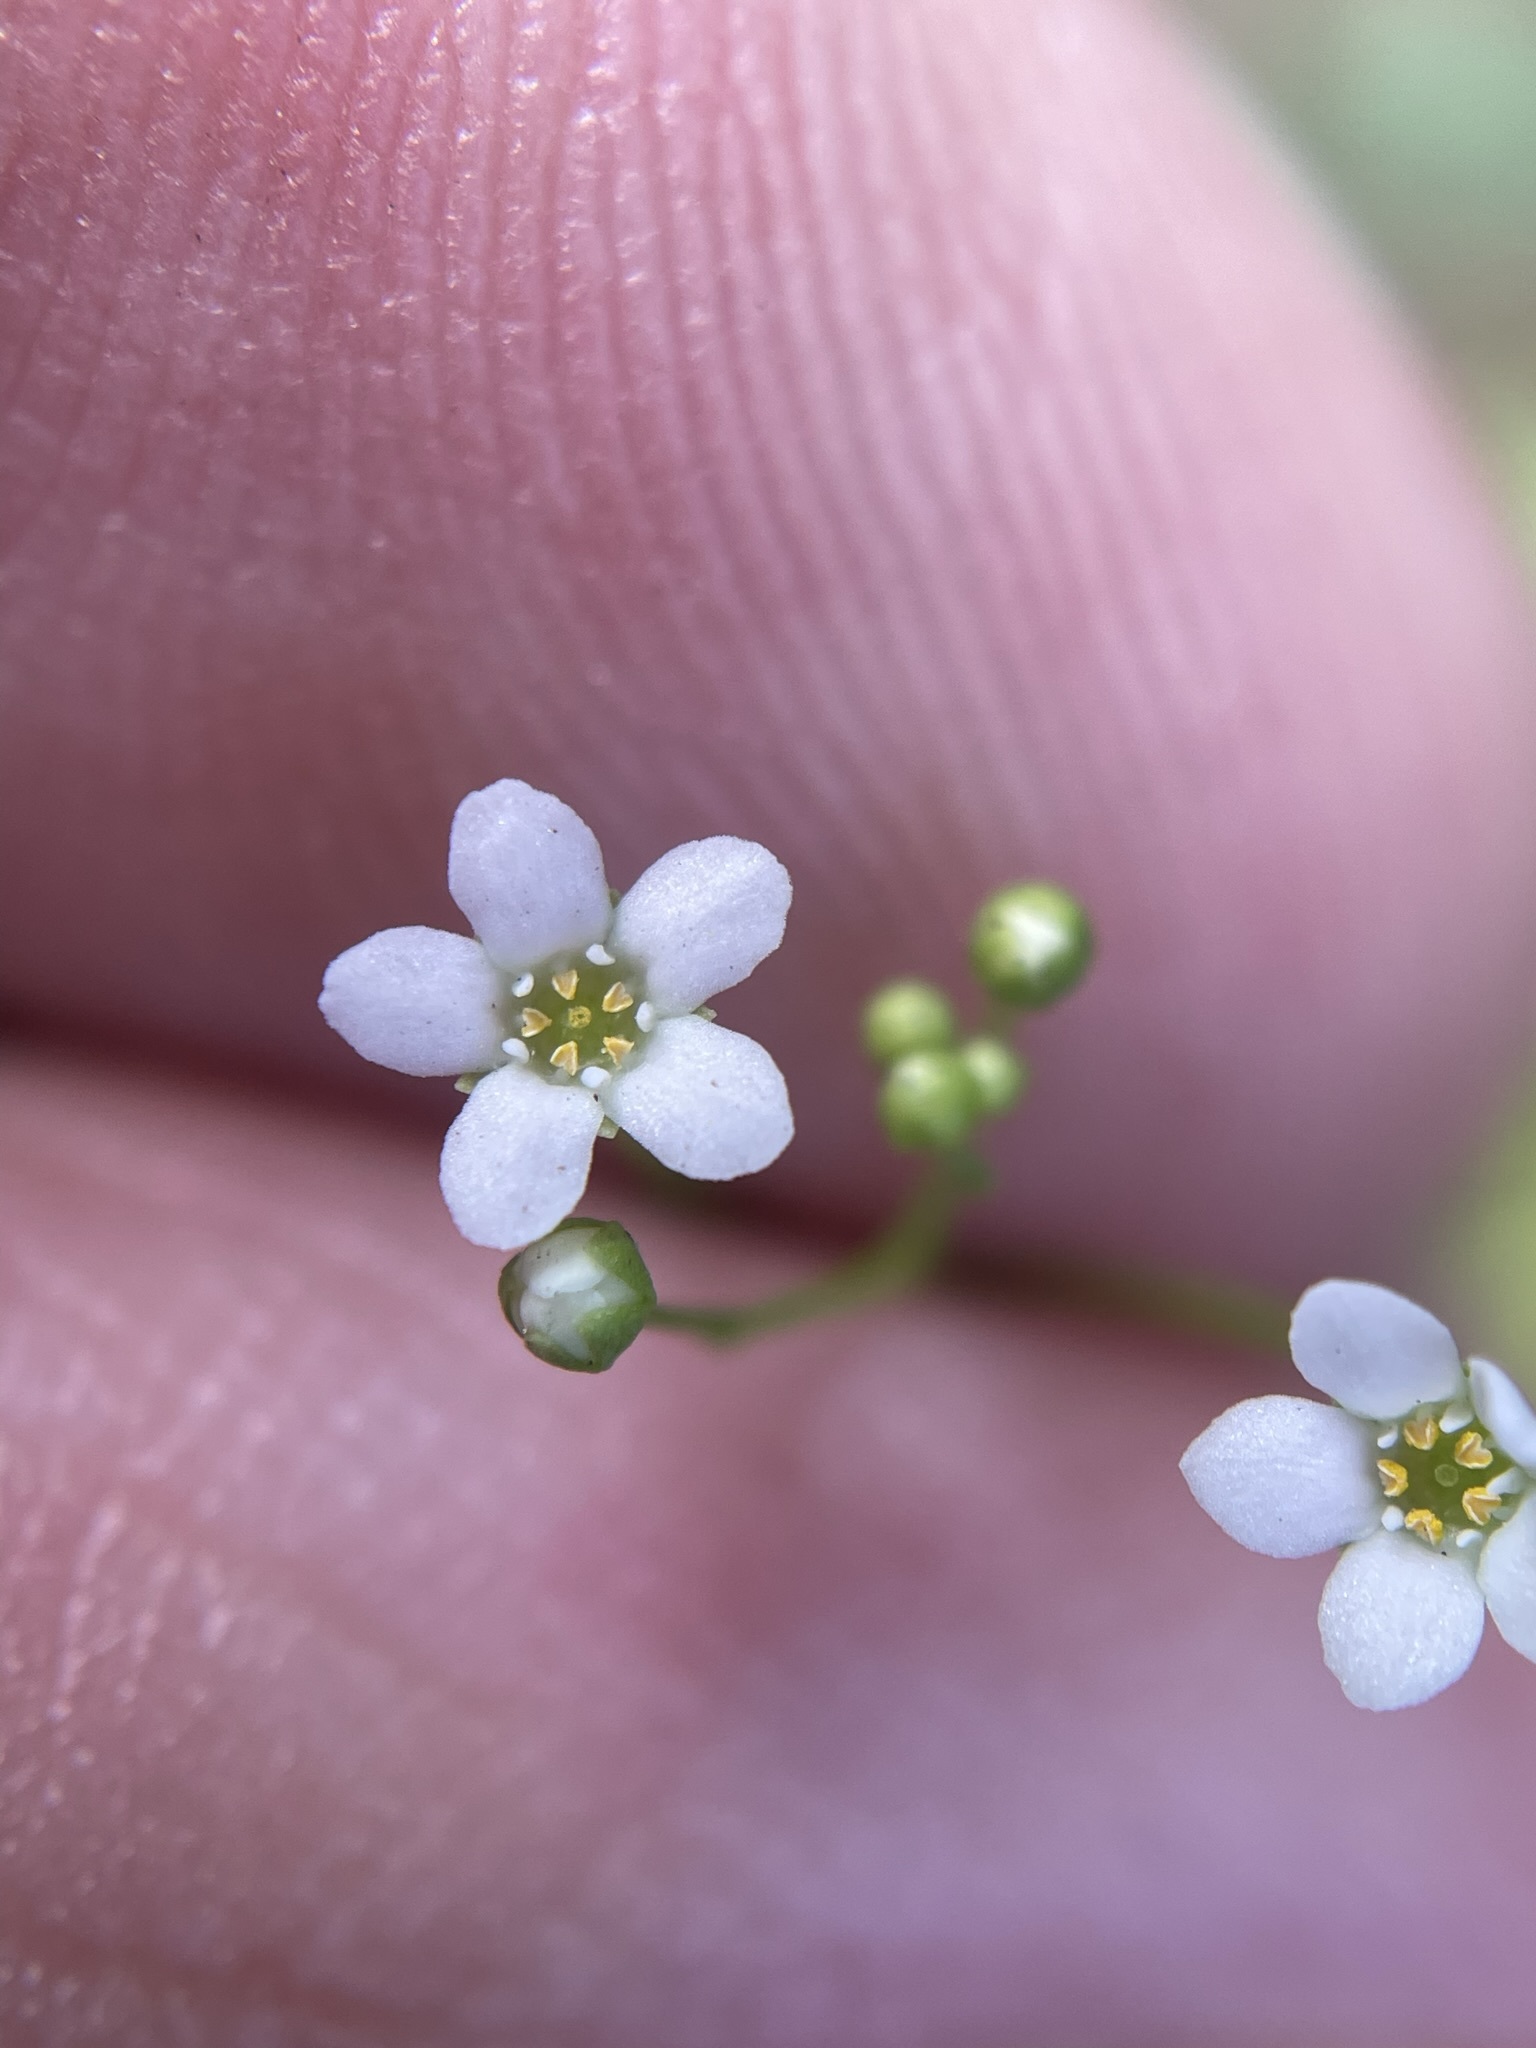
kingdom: Plantae
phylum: Tracheophyta
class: Magnoliopsida
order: Ericales
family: Primulaceae
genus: Samolus
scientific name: Samolus parviflorus
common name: False water pimpernel
